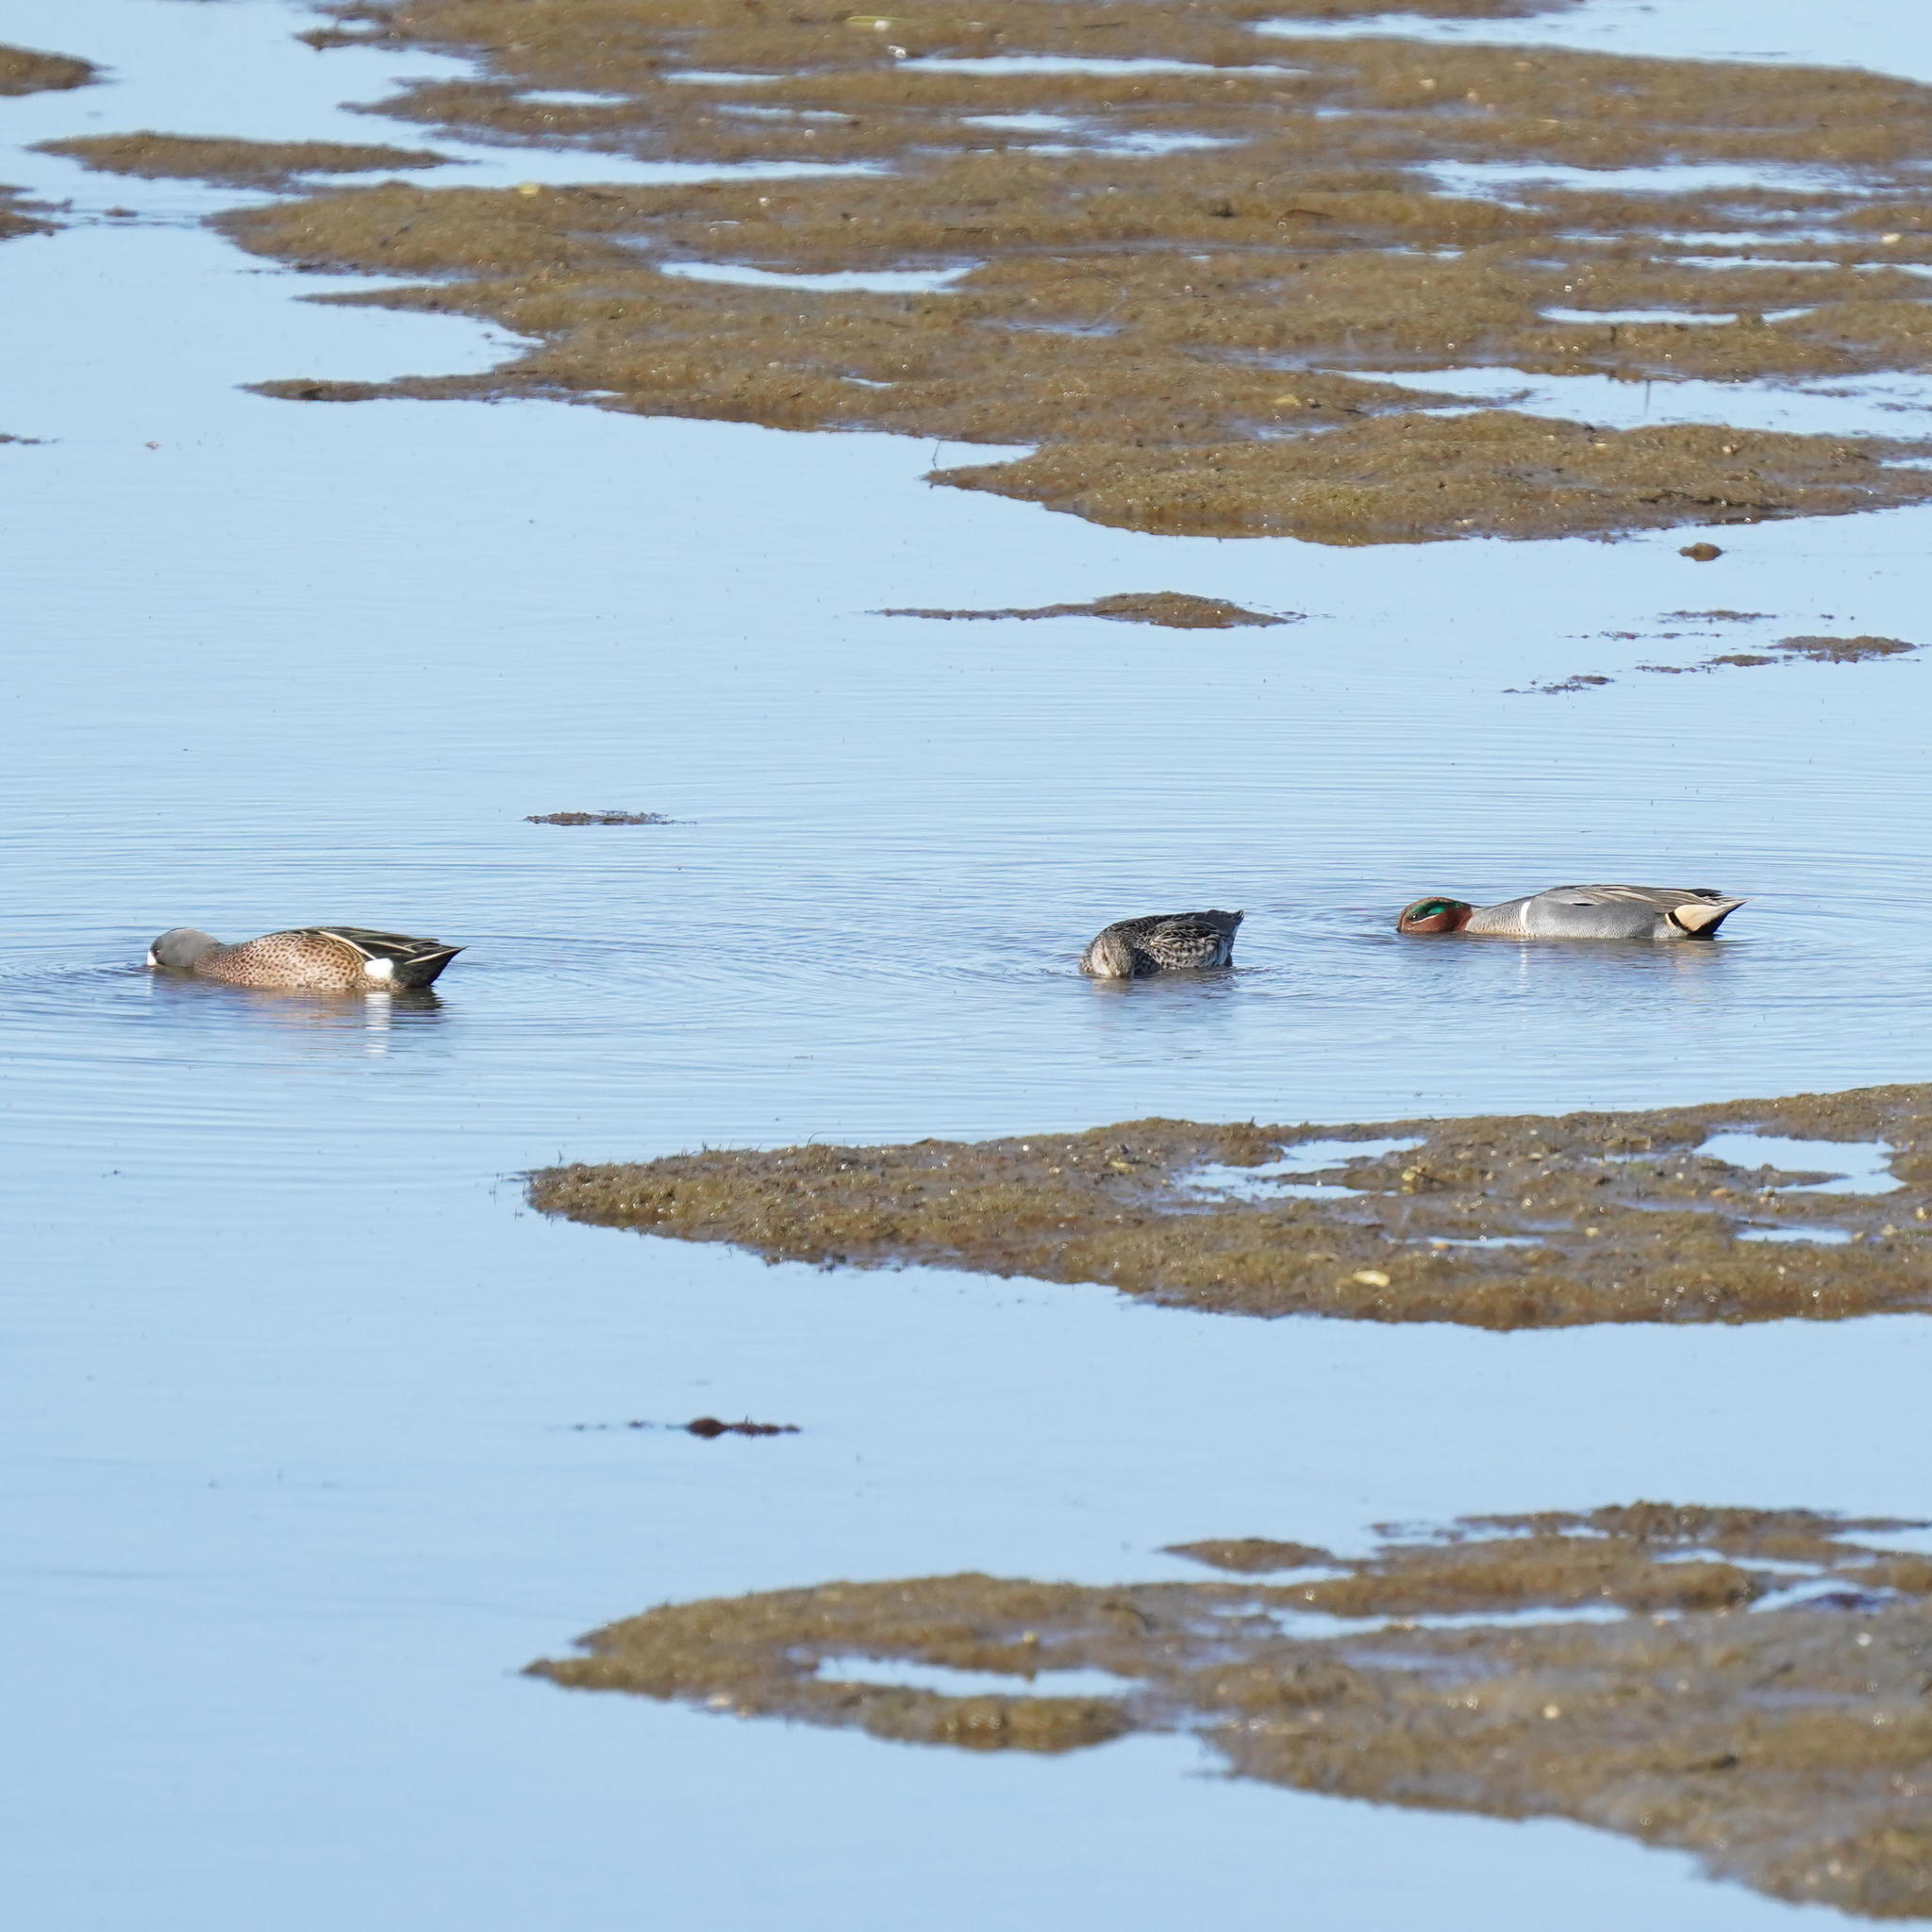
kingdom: Animalia
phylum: Chordata
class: Aves
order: Anseriformes
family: Anatidae
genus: Spatula
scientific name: Spatula discors
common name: Blue-winged teal
